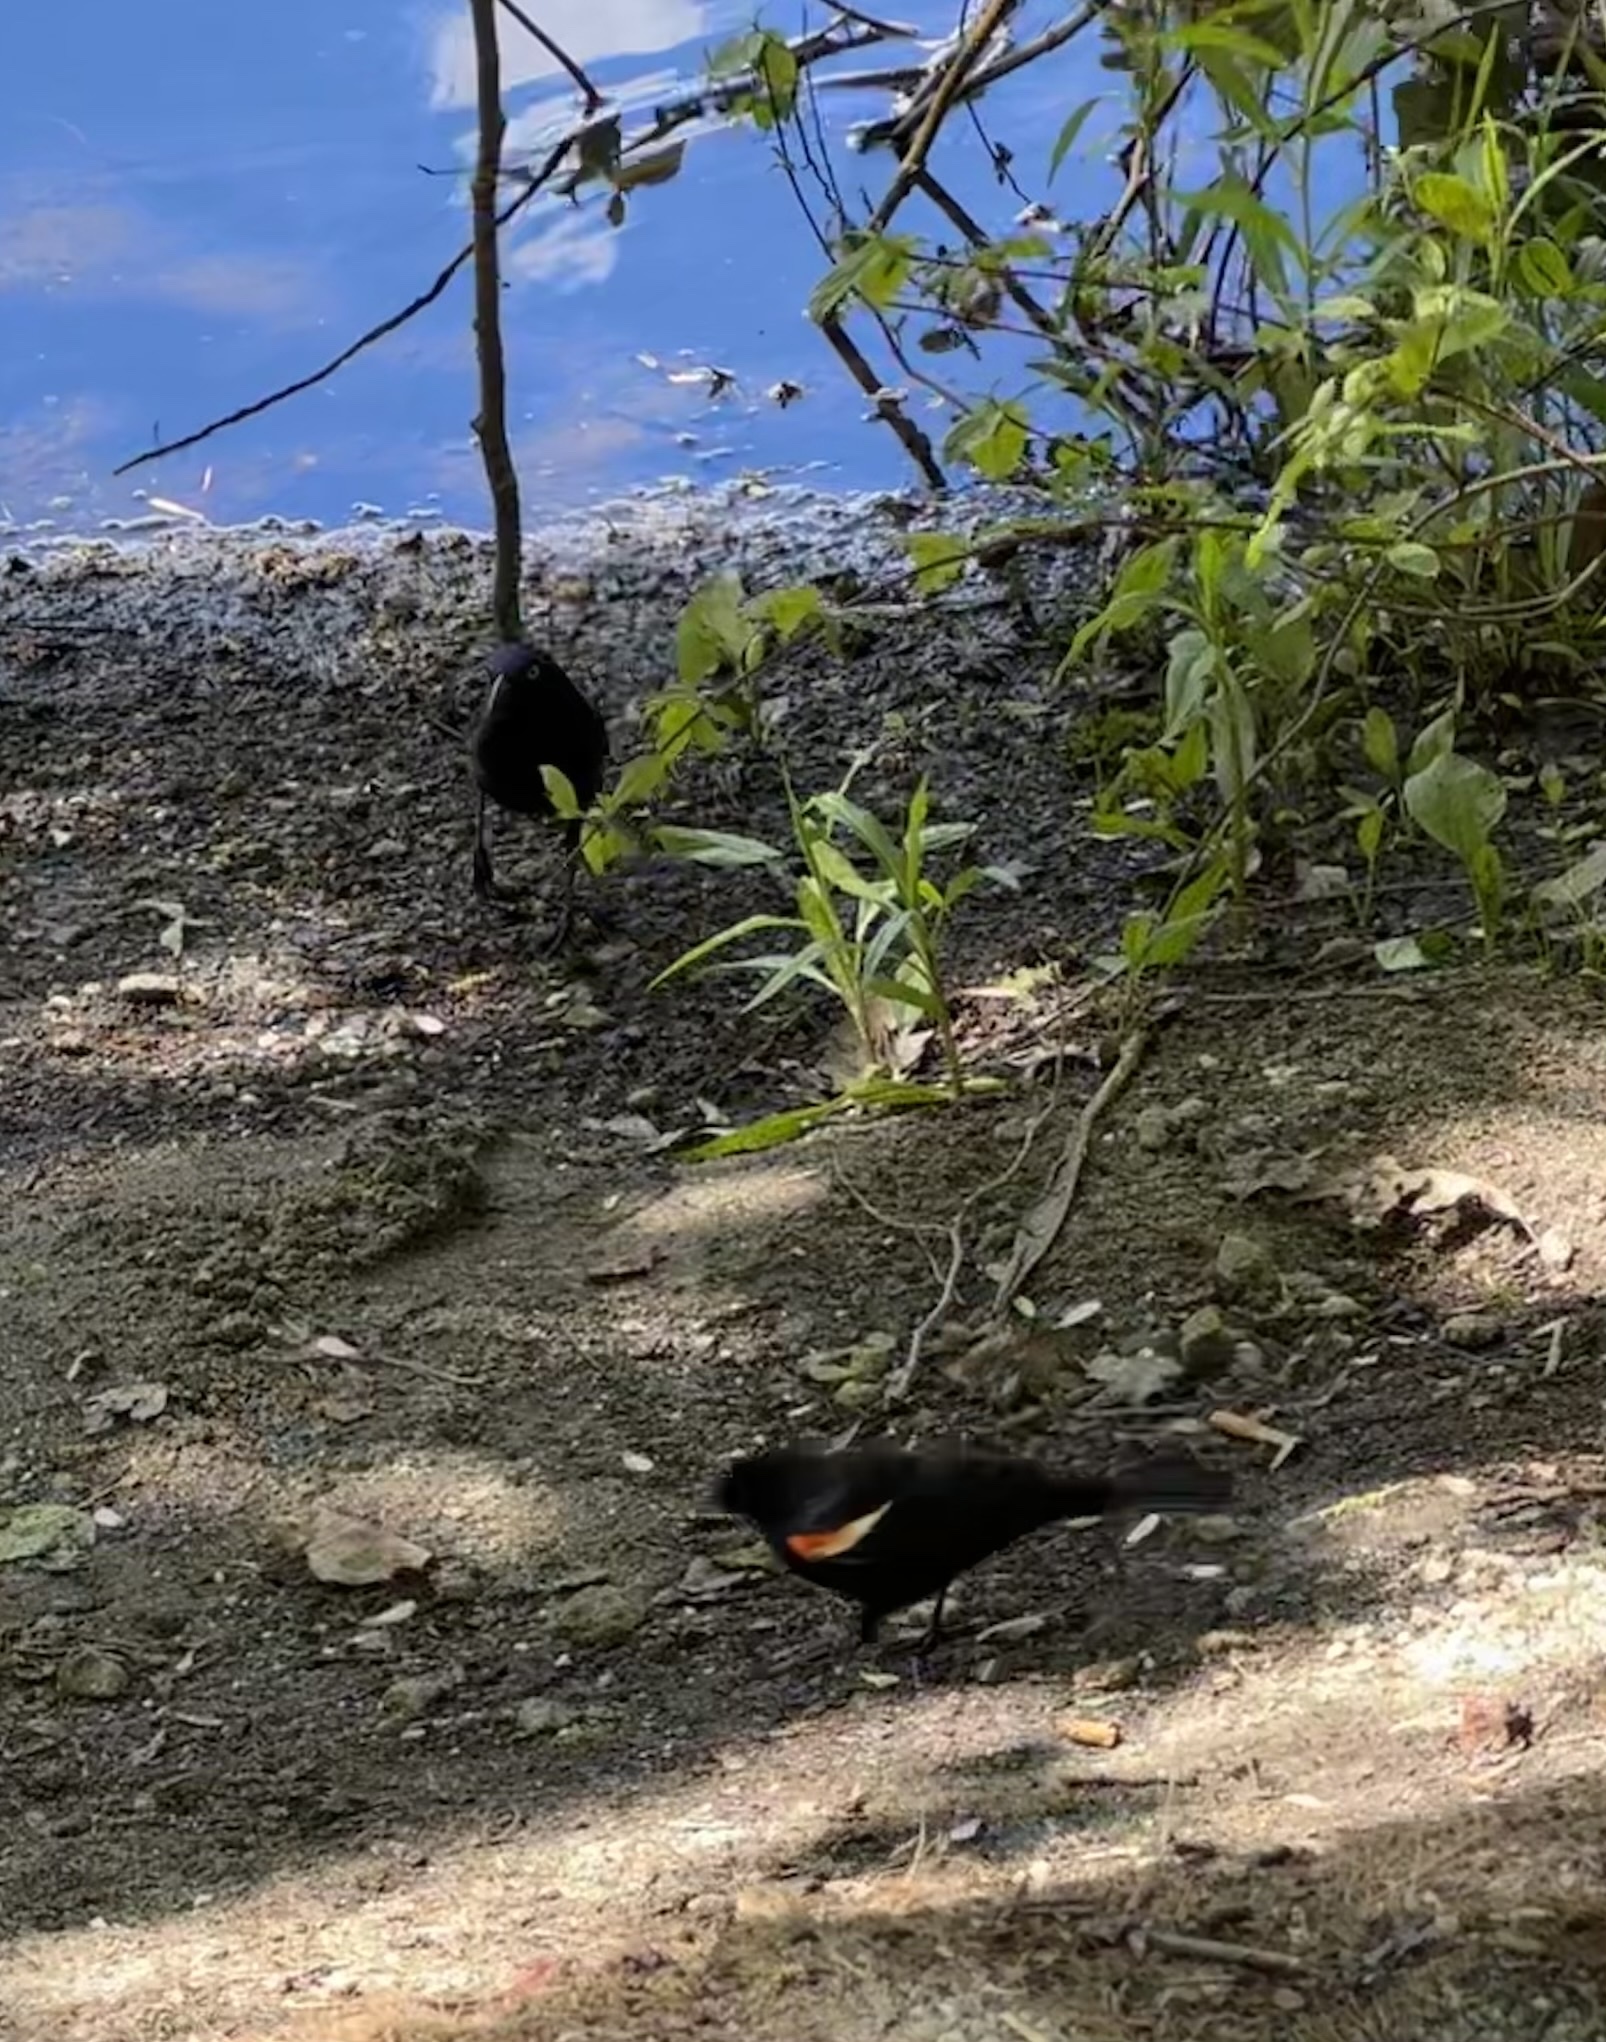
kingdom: Animalia
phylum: Chordata
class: Aves
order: Passeriformes
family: Icteridae
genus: Agelaius
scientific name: Agelaius phoeniceus
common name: Red-winged blackbird
